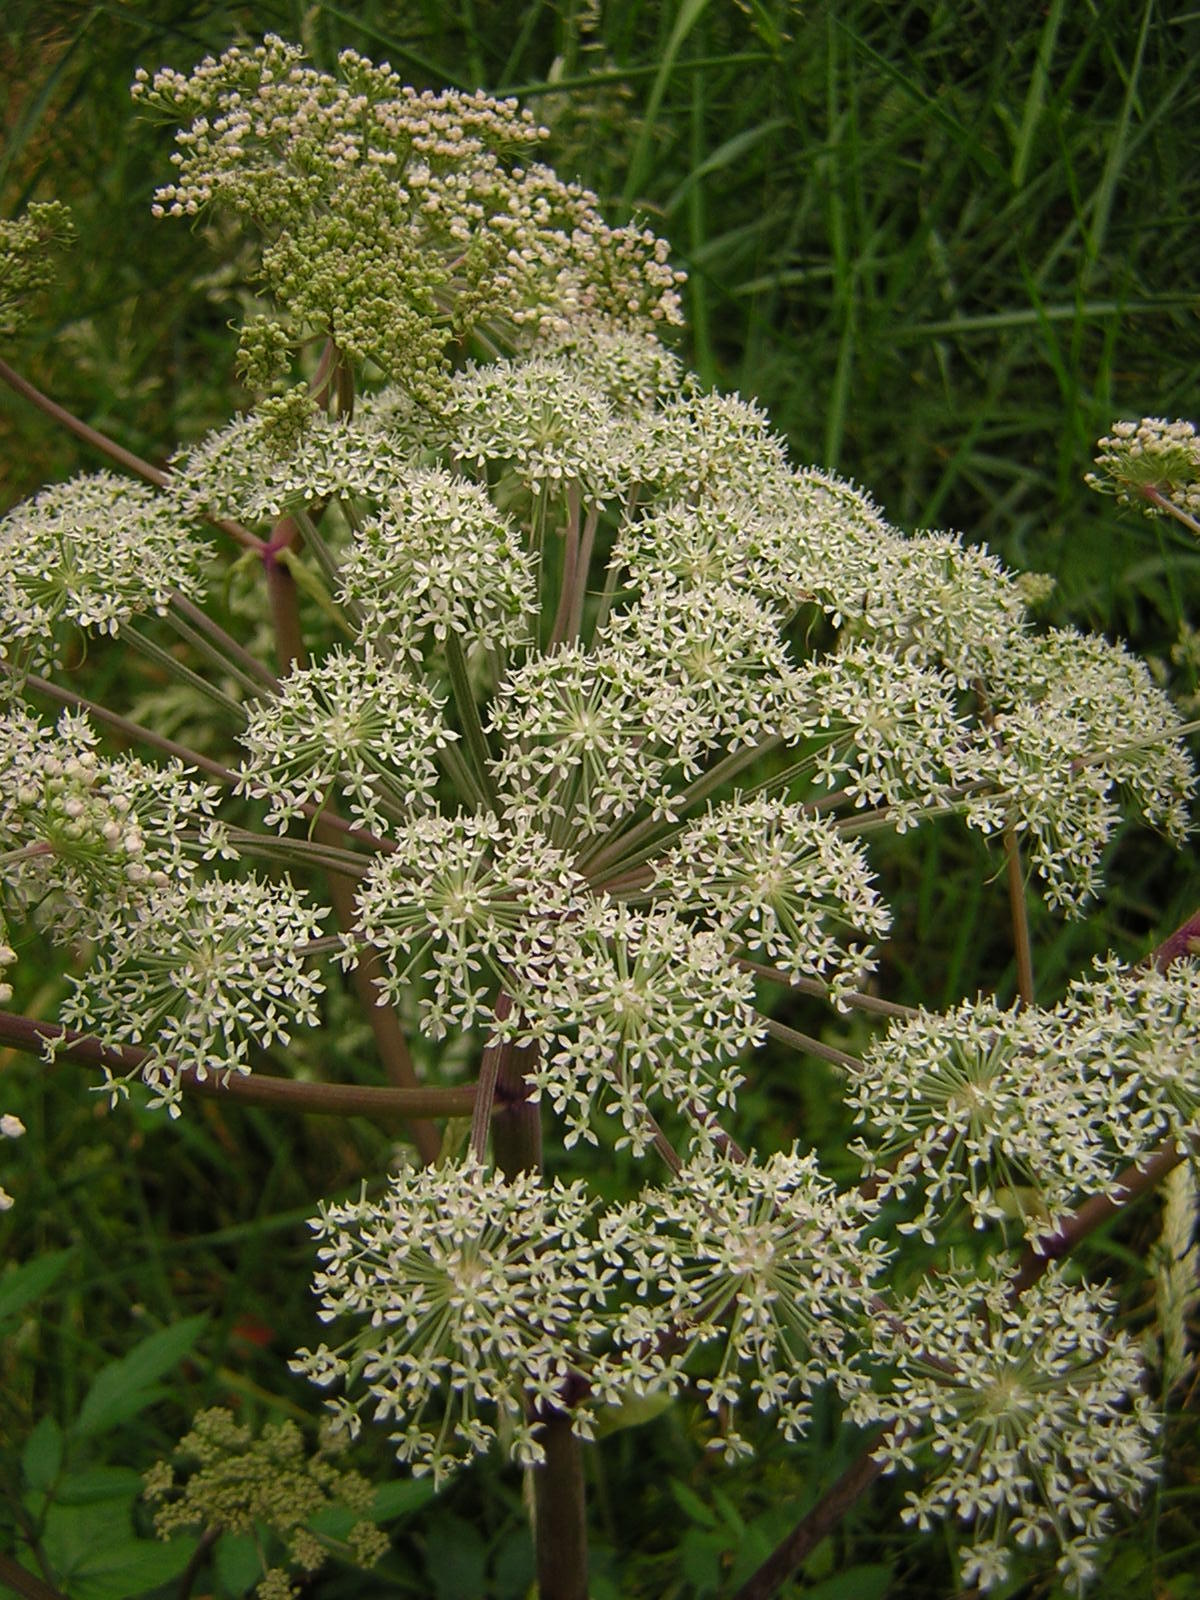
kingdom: Plantae
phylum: Tracheophyta
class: Magnoliopsida
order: Apiales
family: Apiaceae
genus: Angelica
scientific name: Angelica sylvestris
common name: Wild angelica
